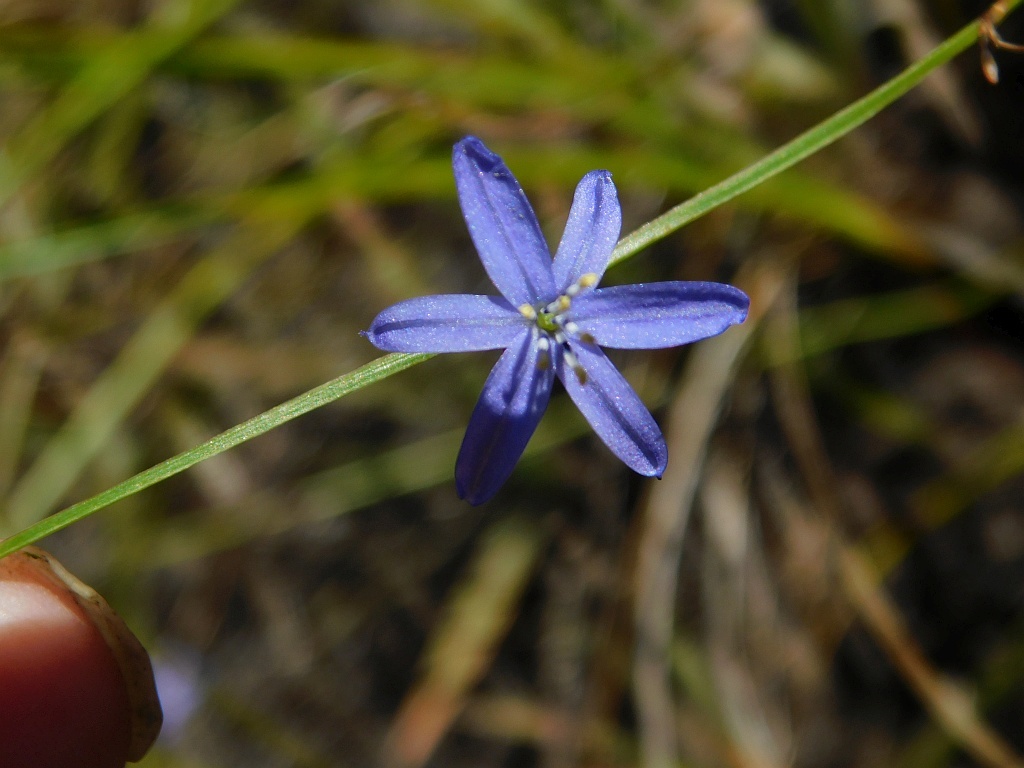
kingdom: Plantae
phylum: Tracheophyta
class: Liliopsida
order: Asparagales
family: Asphodelaceae
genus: Caesia
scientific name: Caesia contorta
